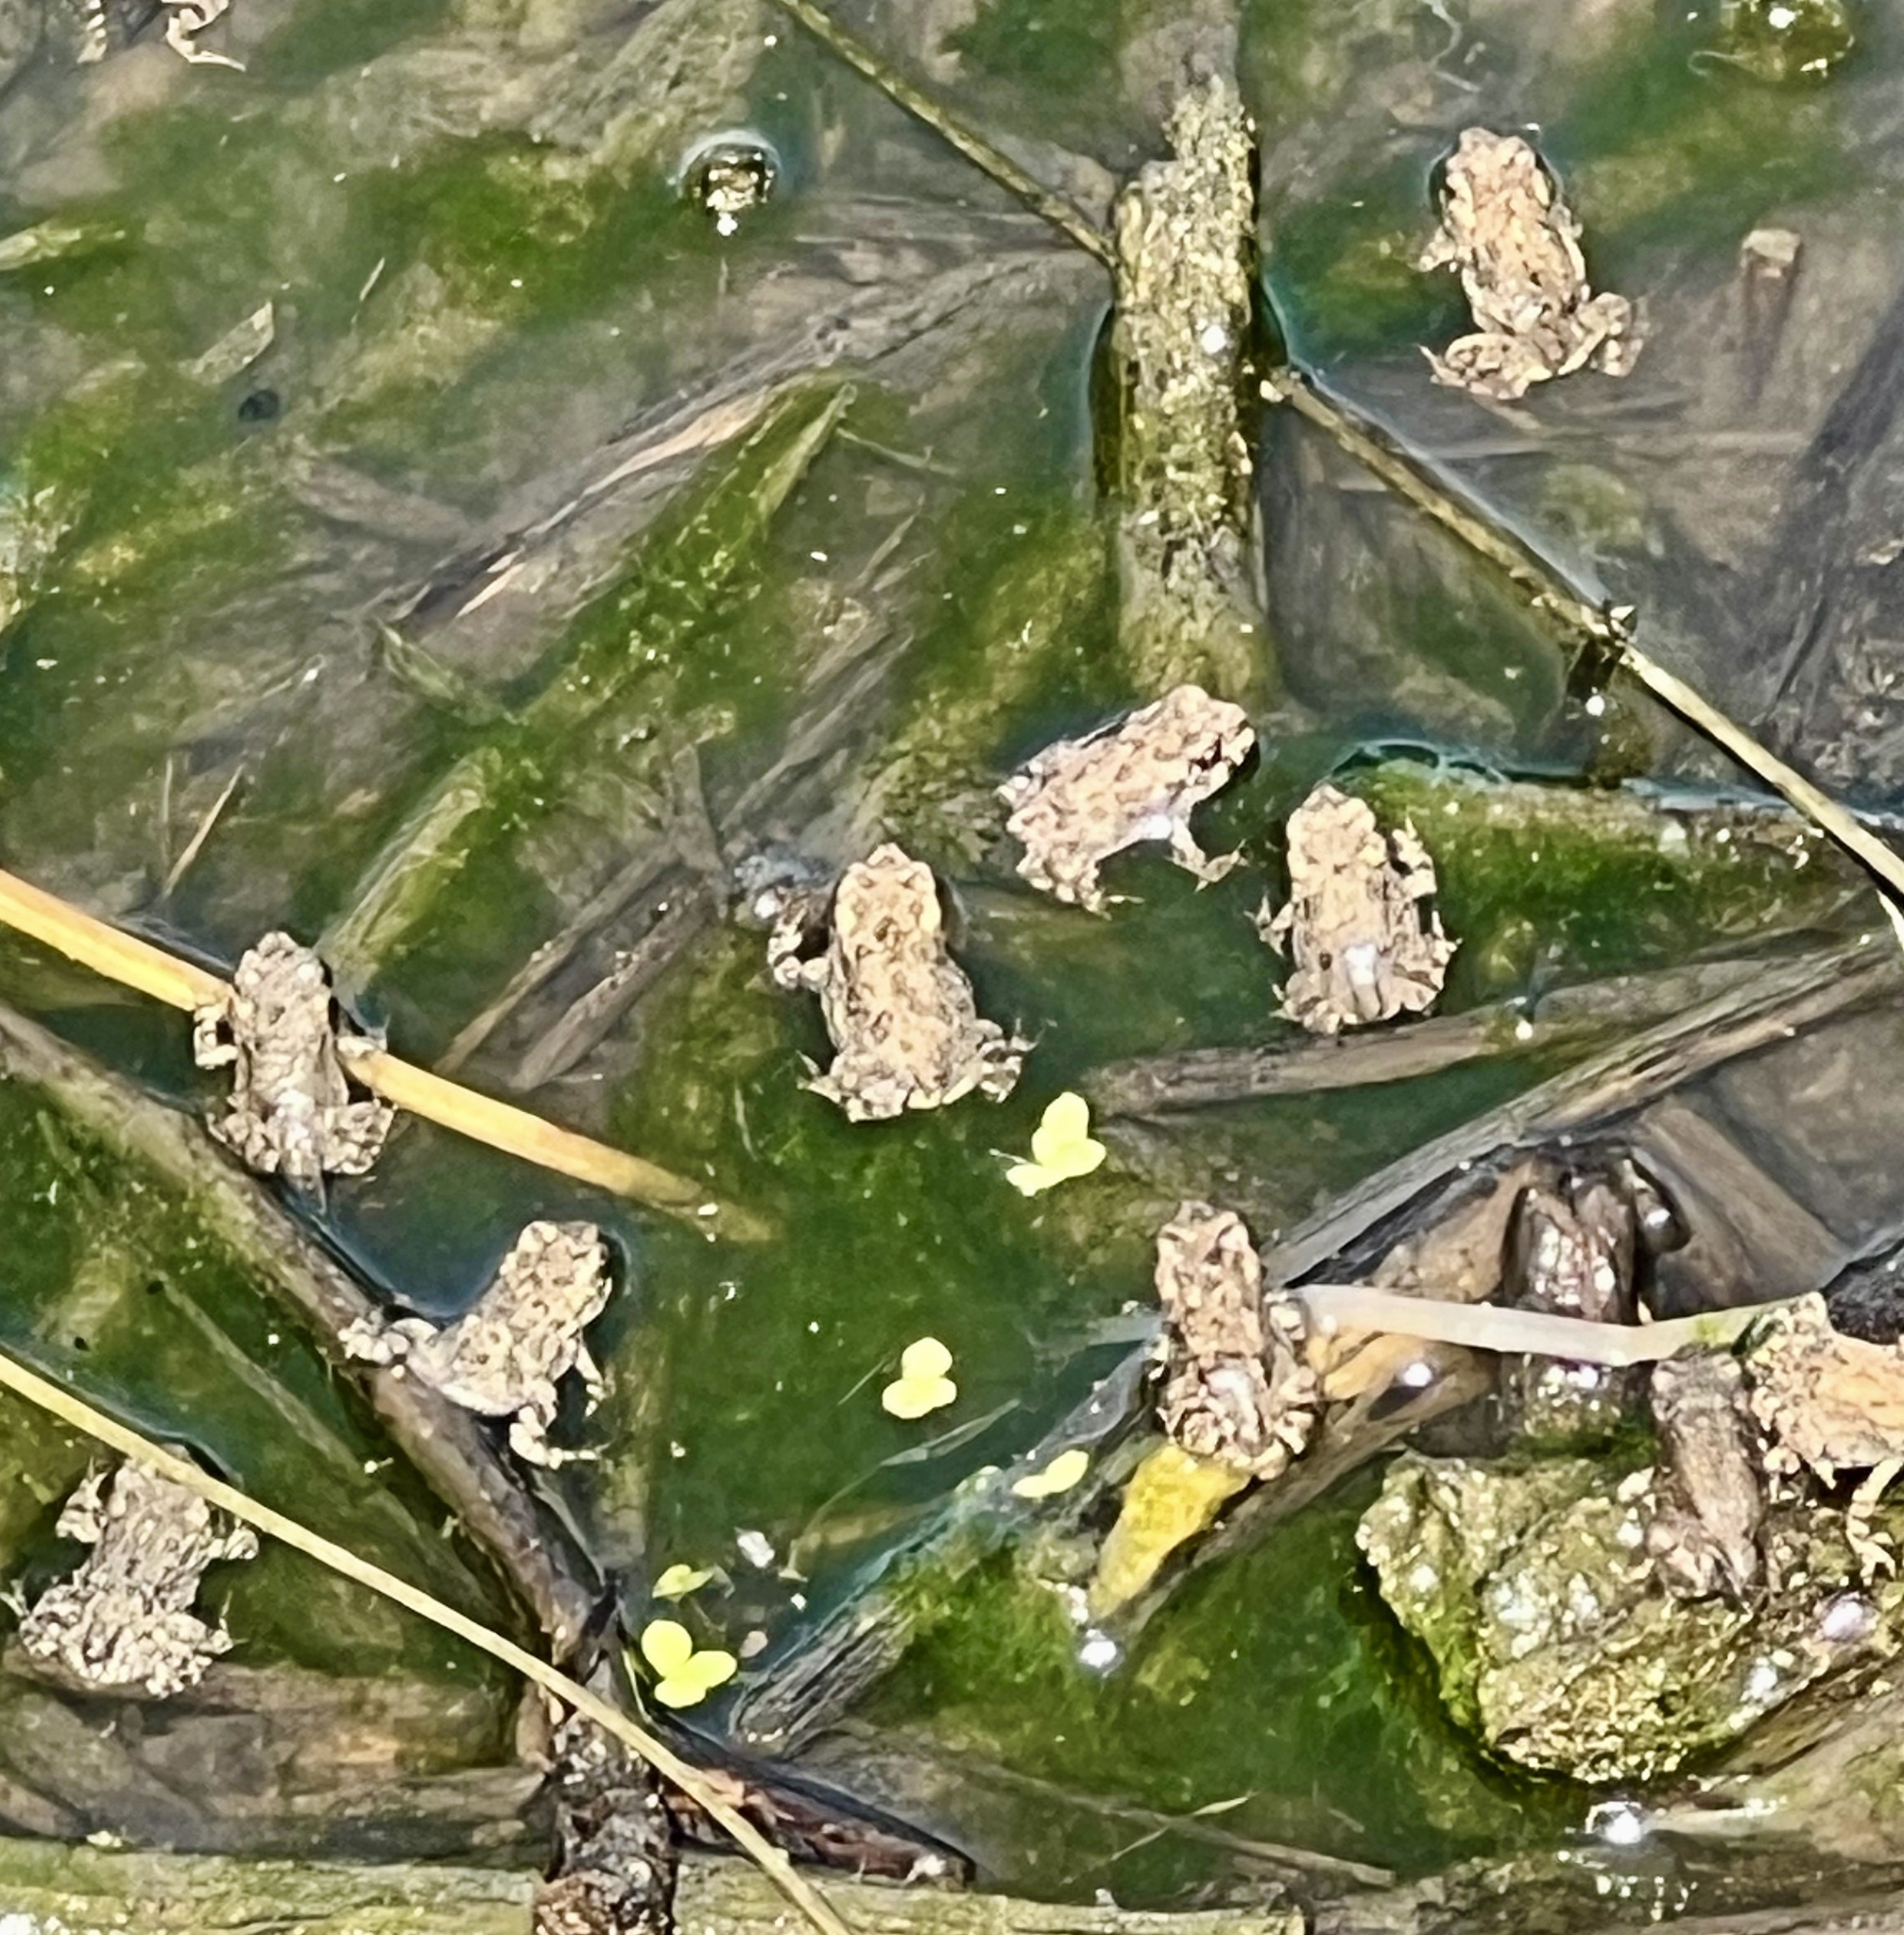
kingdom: Animalia
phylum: Chordata
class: Amphibia
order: Anura
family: Bufonidae
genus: Anaxyrus
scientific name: Anaxyrus boreas
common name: Western toad
